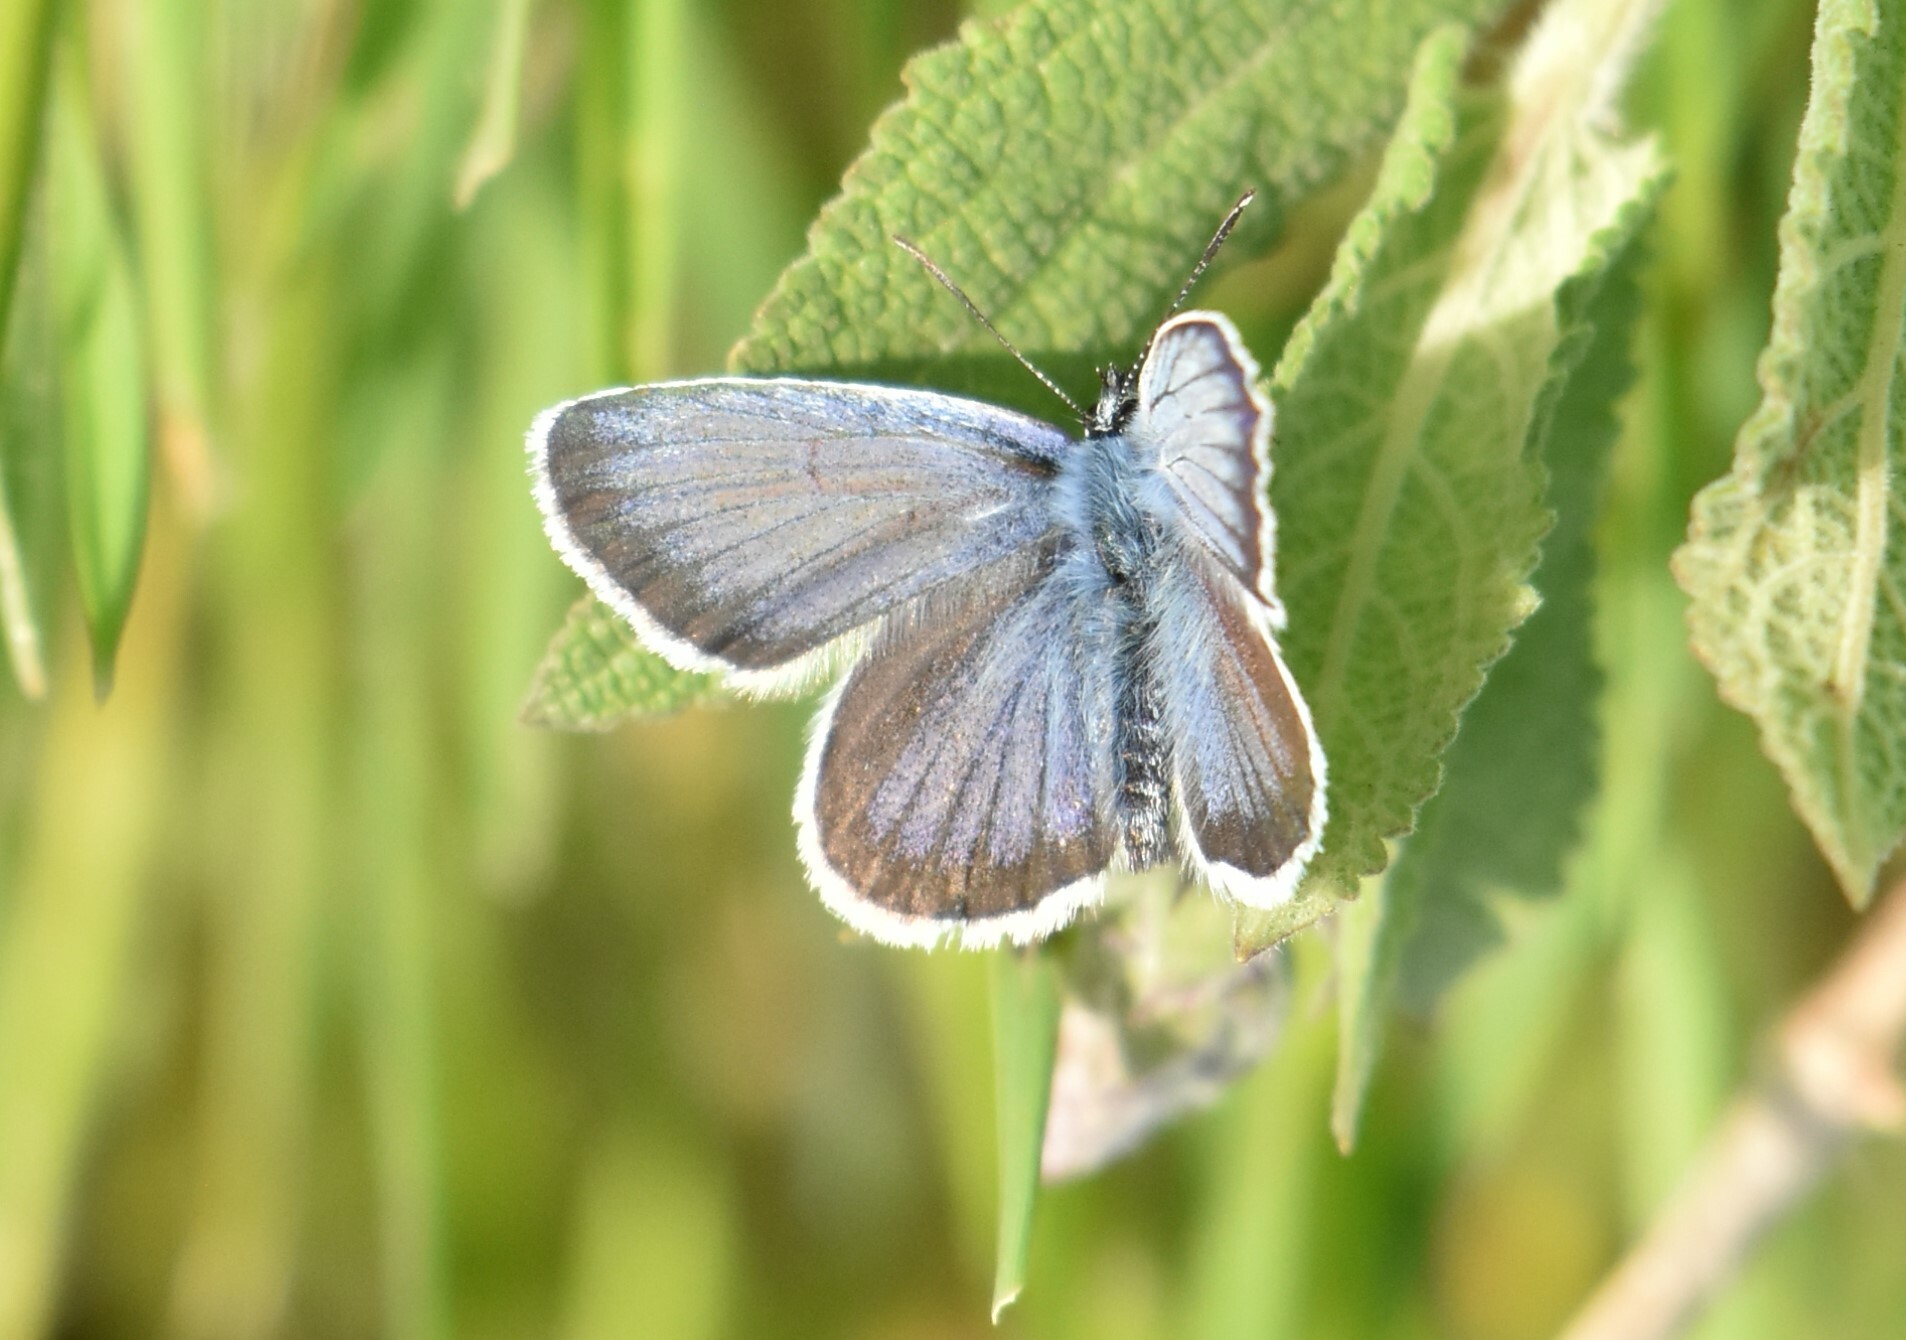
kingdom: Animalia
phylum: Arthropoda
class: Insecta
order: Lepidoptera
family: Lycaenidae
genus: Plebejus
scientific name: Plebejus argus
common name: Silver-studded blue
